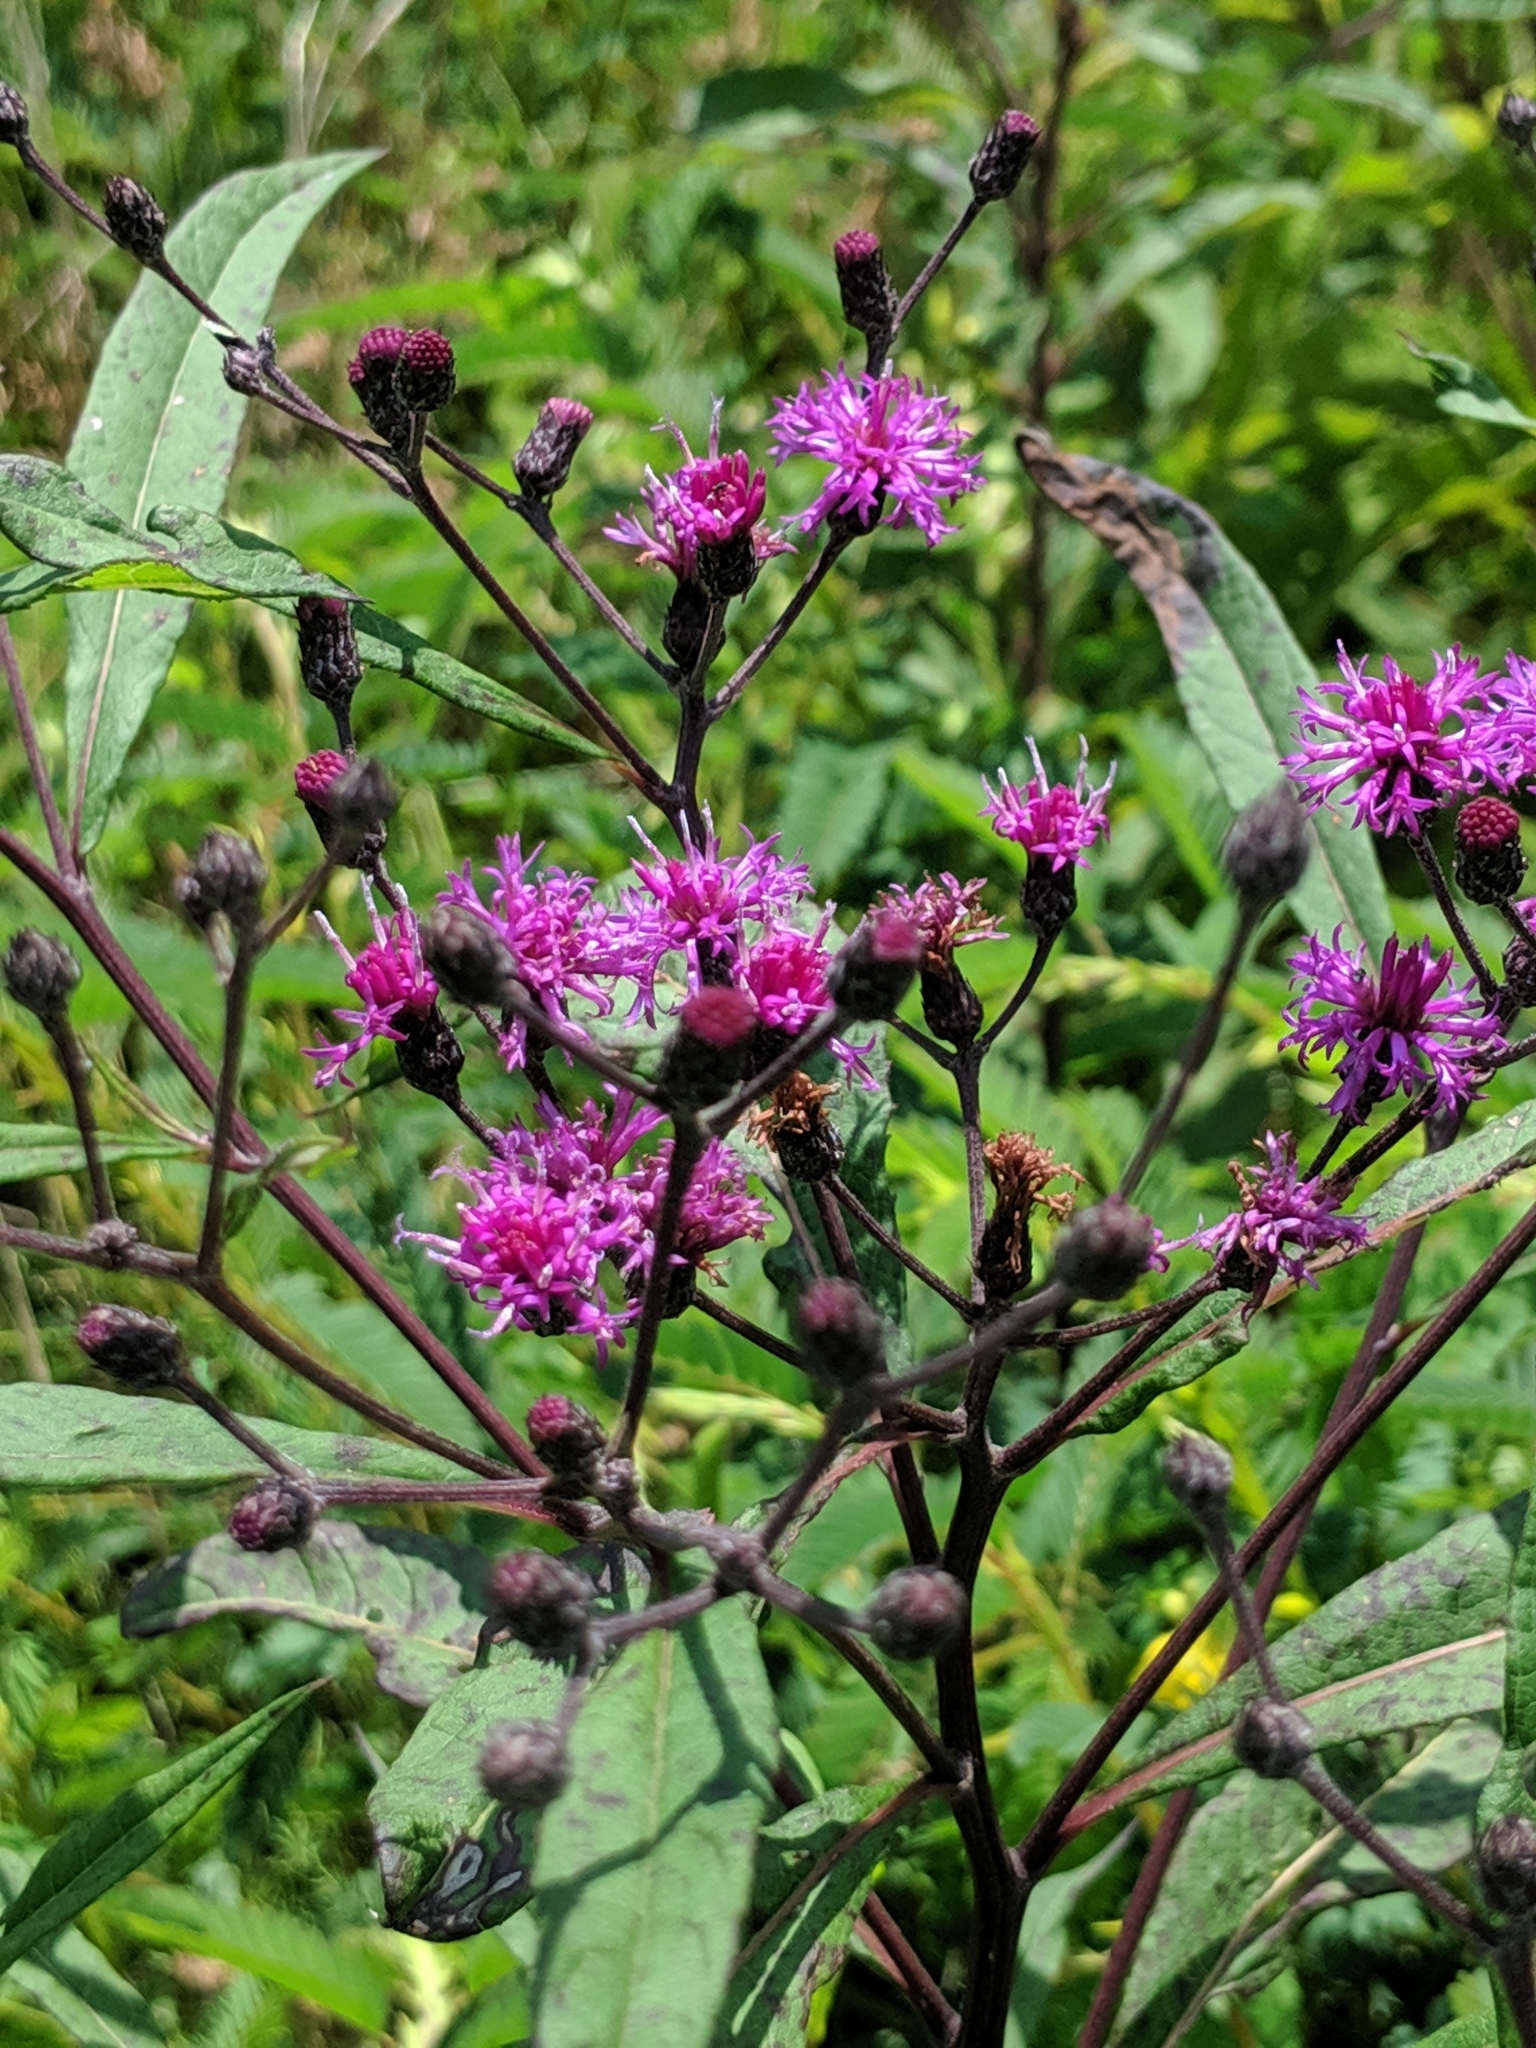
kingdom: Plantae
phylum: Tracheophyta
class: Magnoliopsida
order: Asterales
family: Asteraceae
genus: Vernonia
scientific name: Vernonia gigantea
